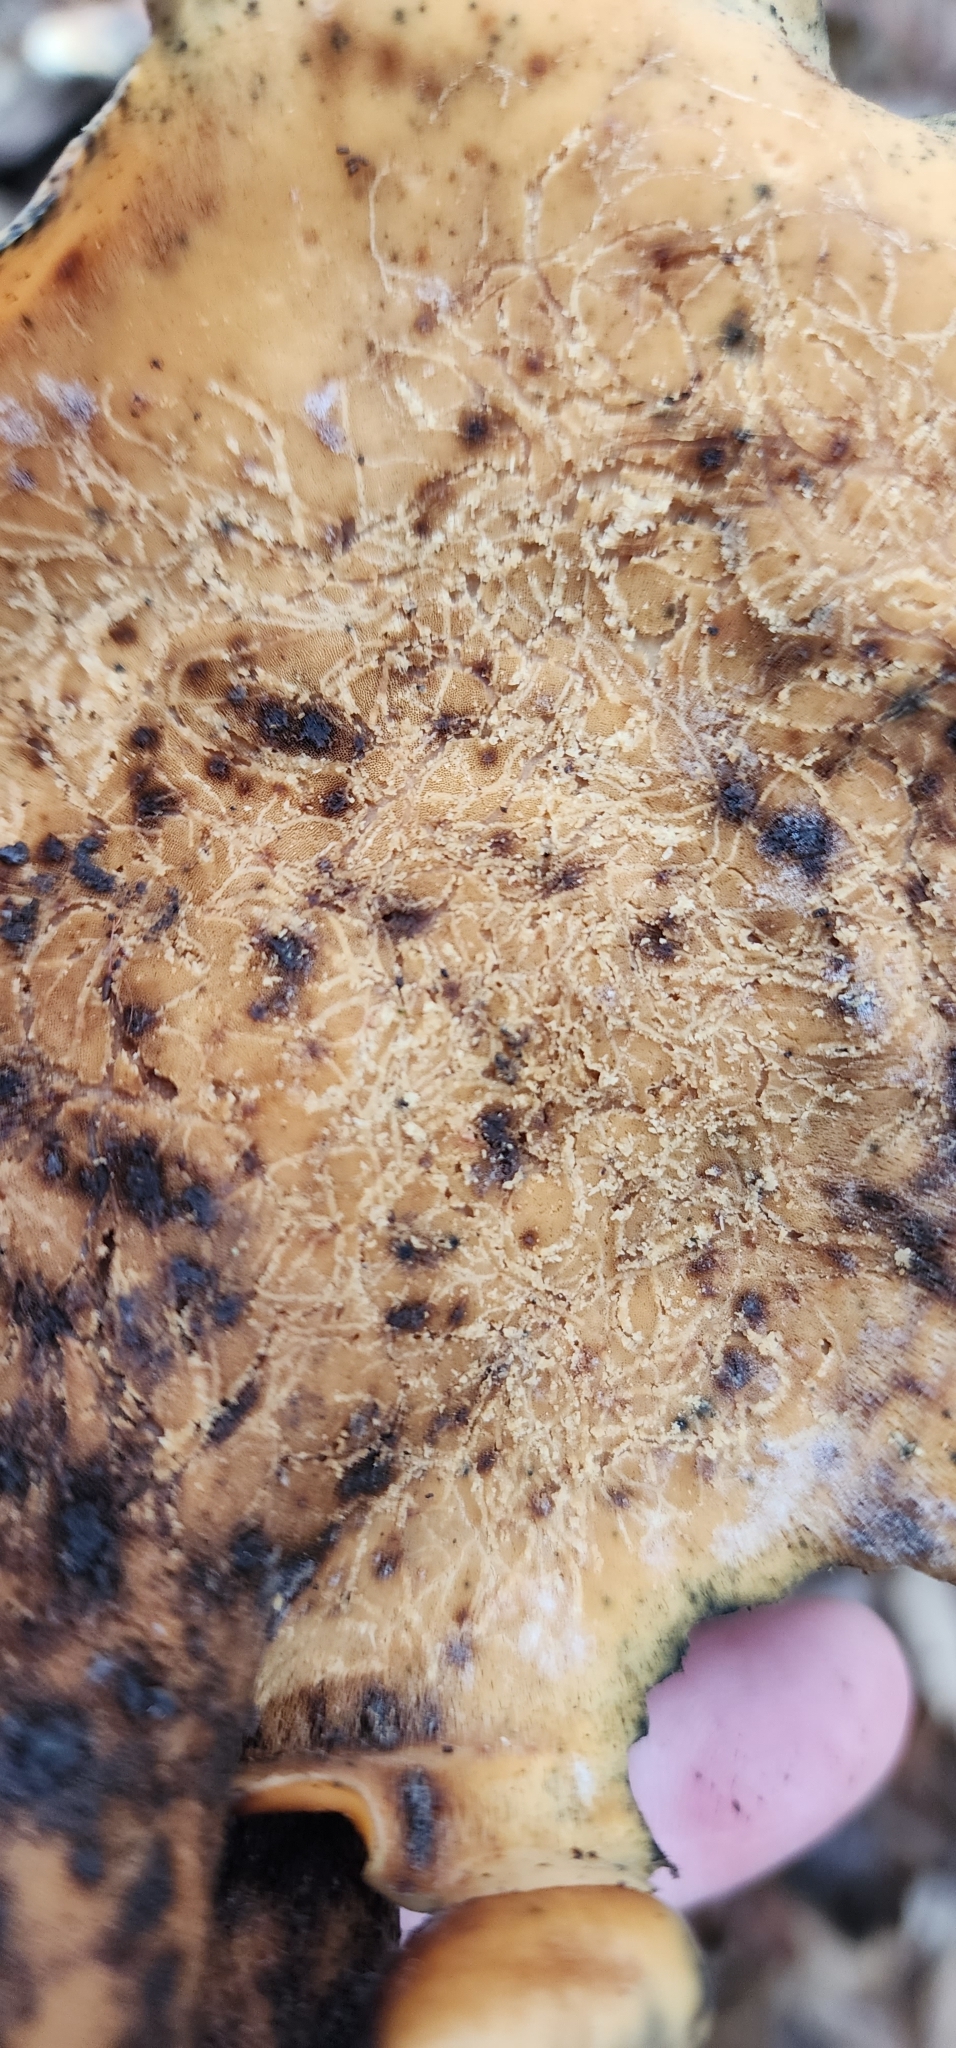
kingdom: Fungi
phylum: Basidiomycota
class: Agaricomycetes
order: Polyporales
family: Polyporaceae
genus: Picipes
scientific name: Picipes badius
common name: Bay polypore
